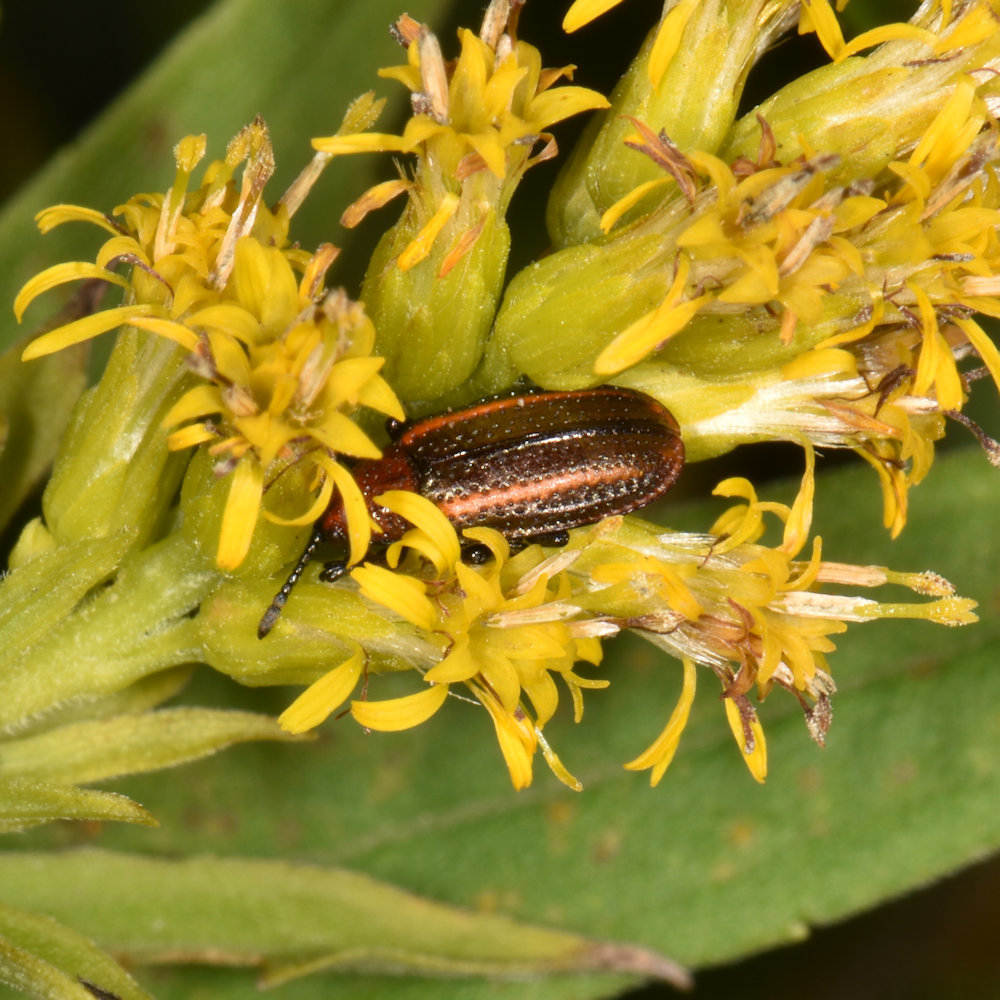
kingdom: Animalia
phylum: Arthropoda
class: Insecta
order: Coleoptera
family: Chrysomelidae
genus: Microrhopala
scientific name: Microrhopala vittata
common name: Goldenrod leaf miner beetle
